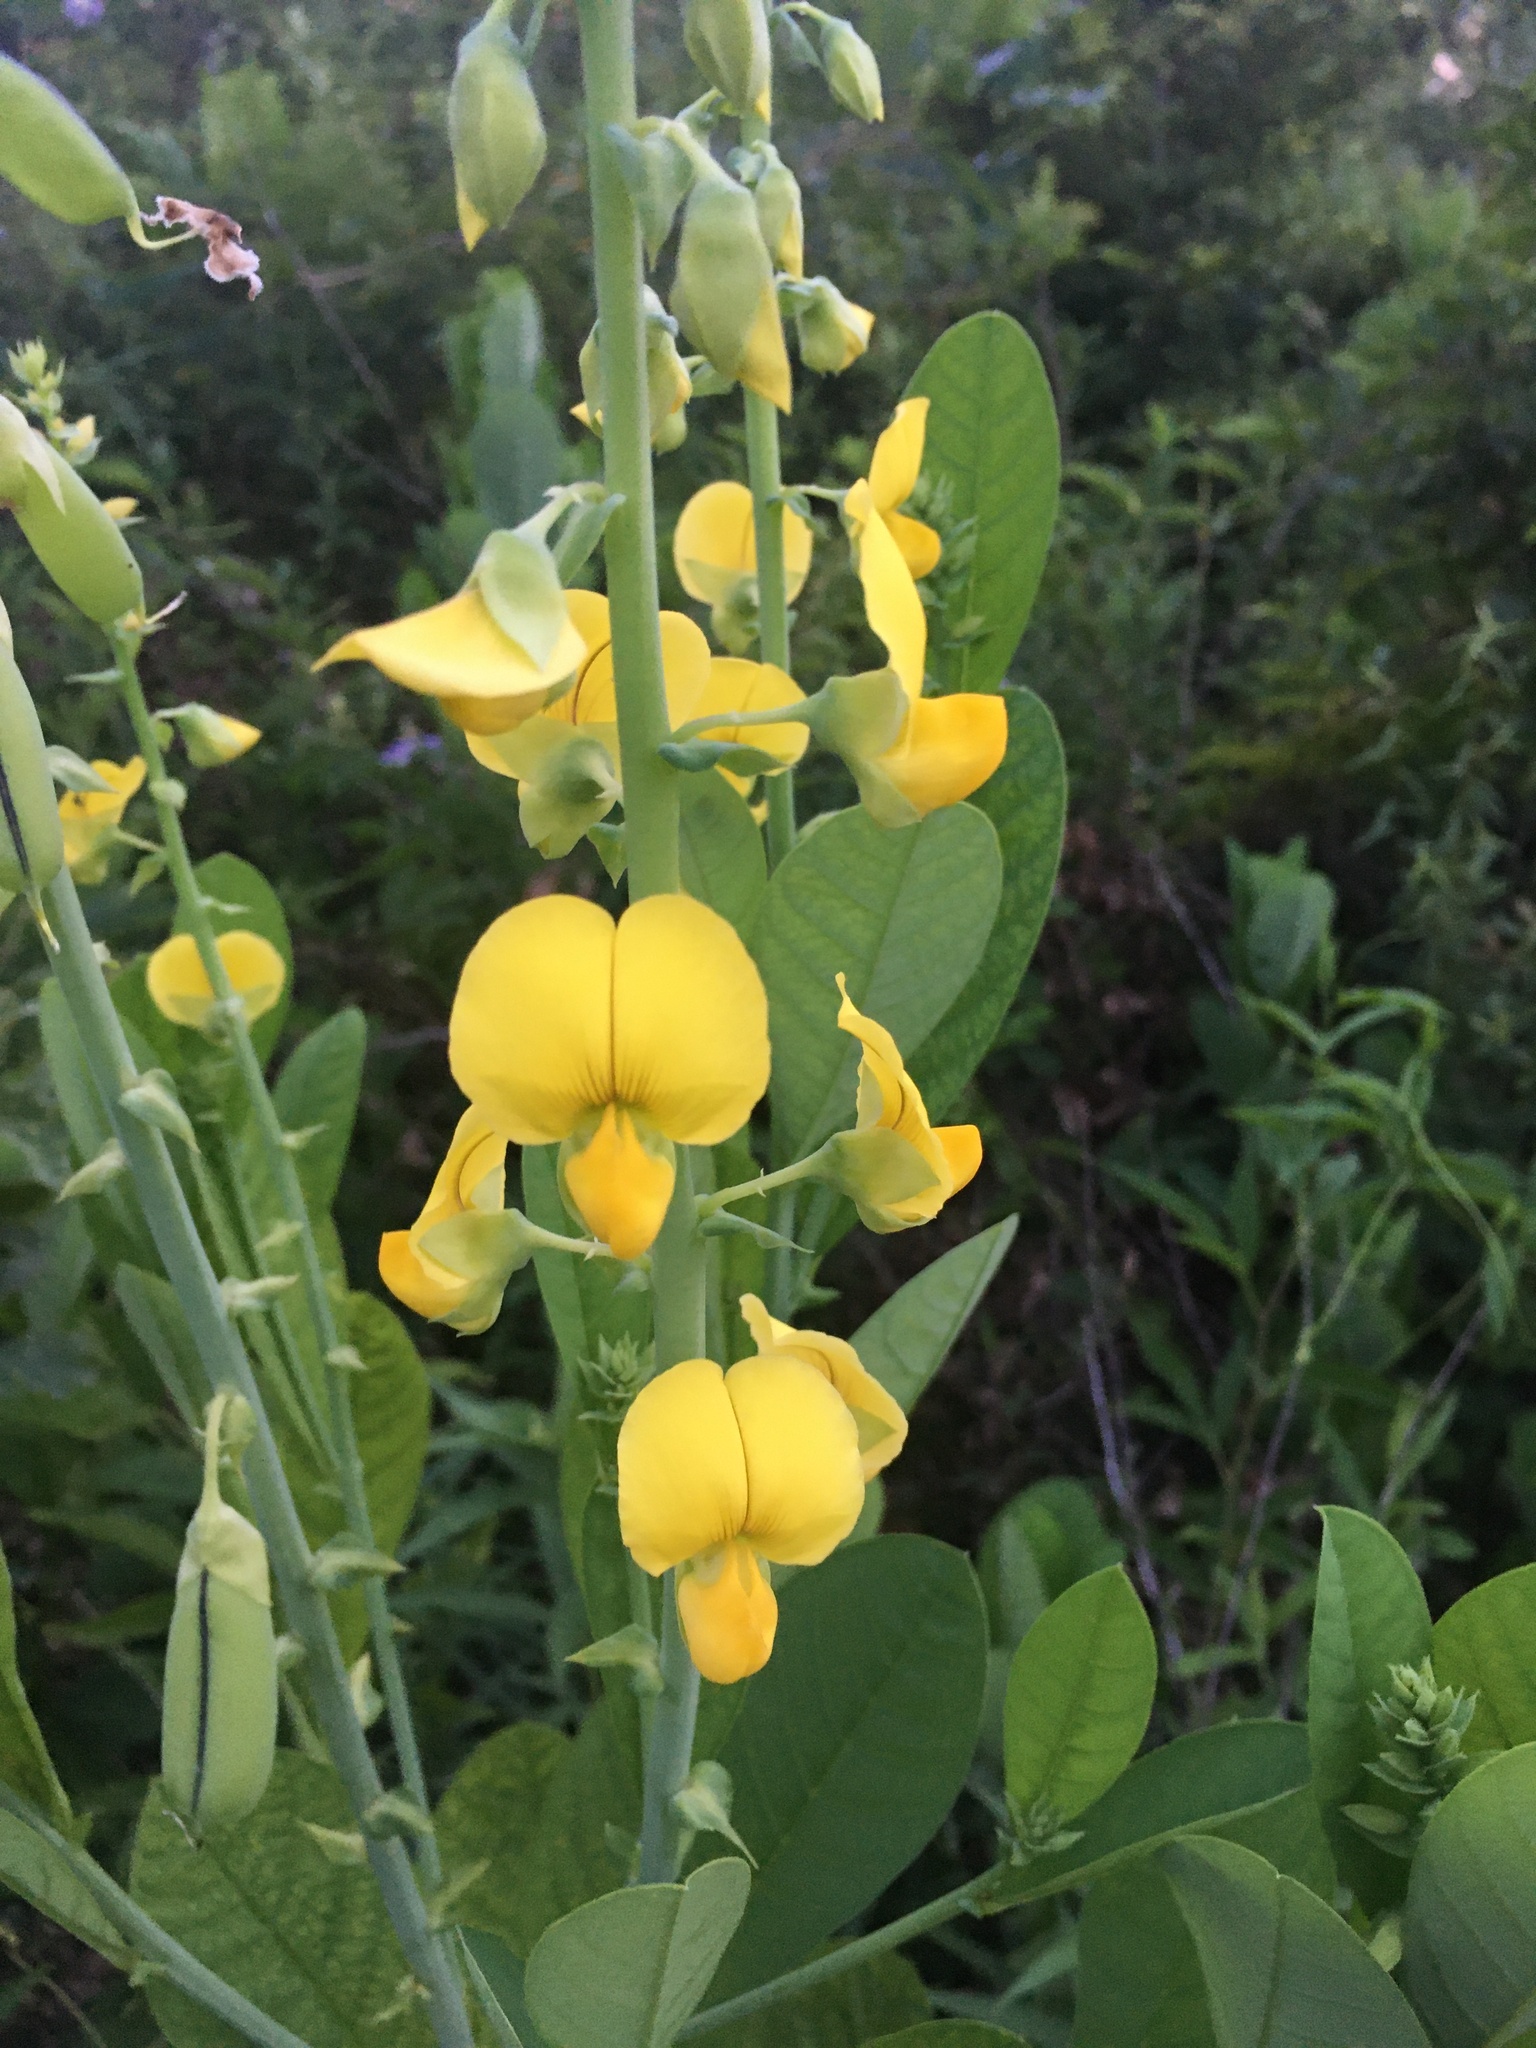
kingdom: Plantae
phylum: Tracheophyta
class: Magnoliopsida
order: Fabales
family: Fabaceae
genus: Crotalaria
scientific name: Crotalaria spectabilis
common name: Showy rattlebox
